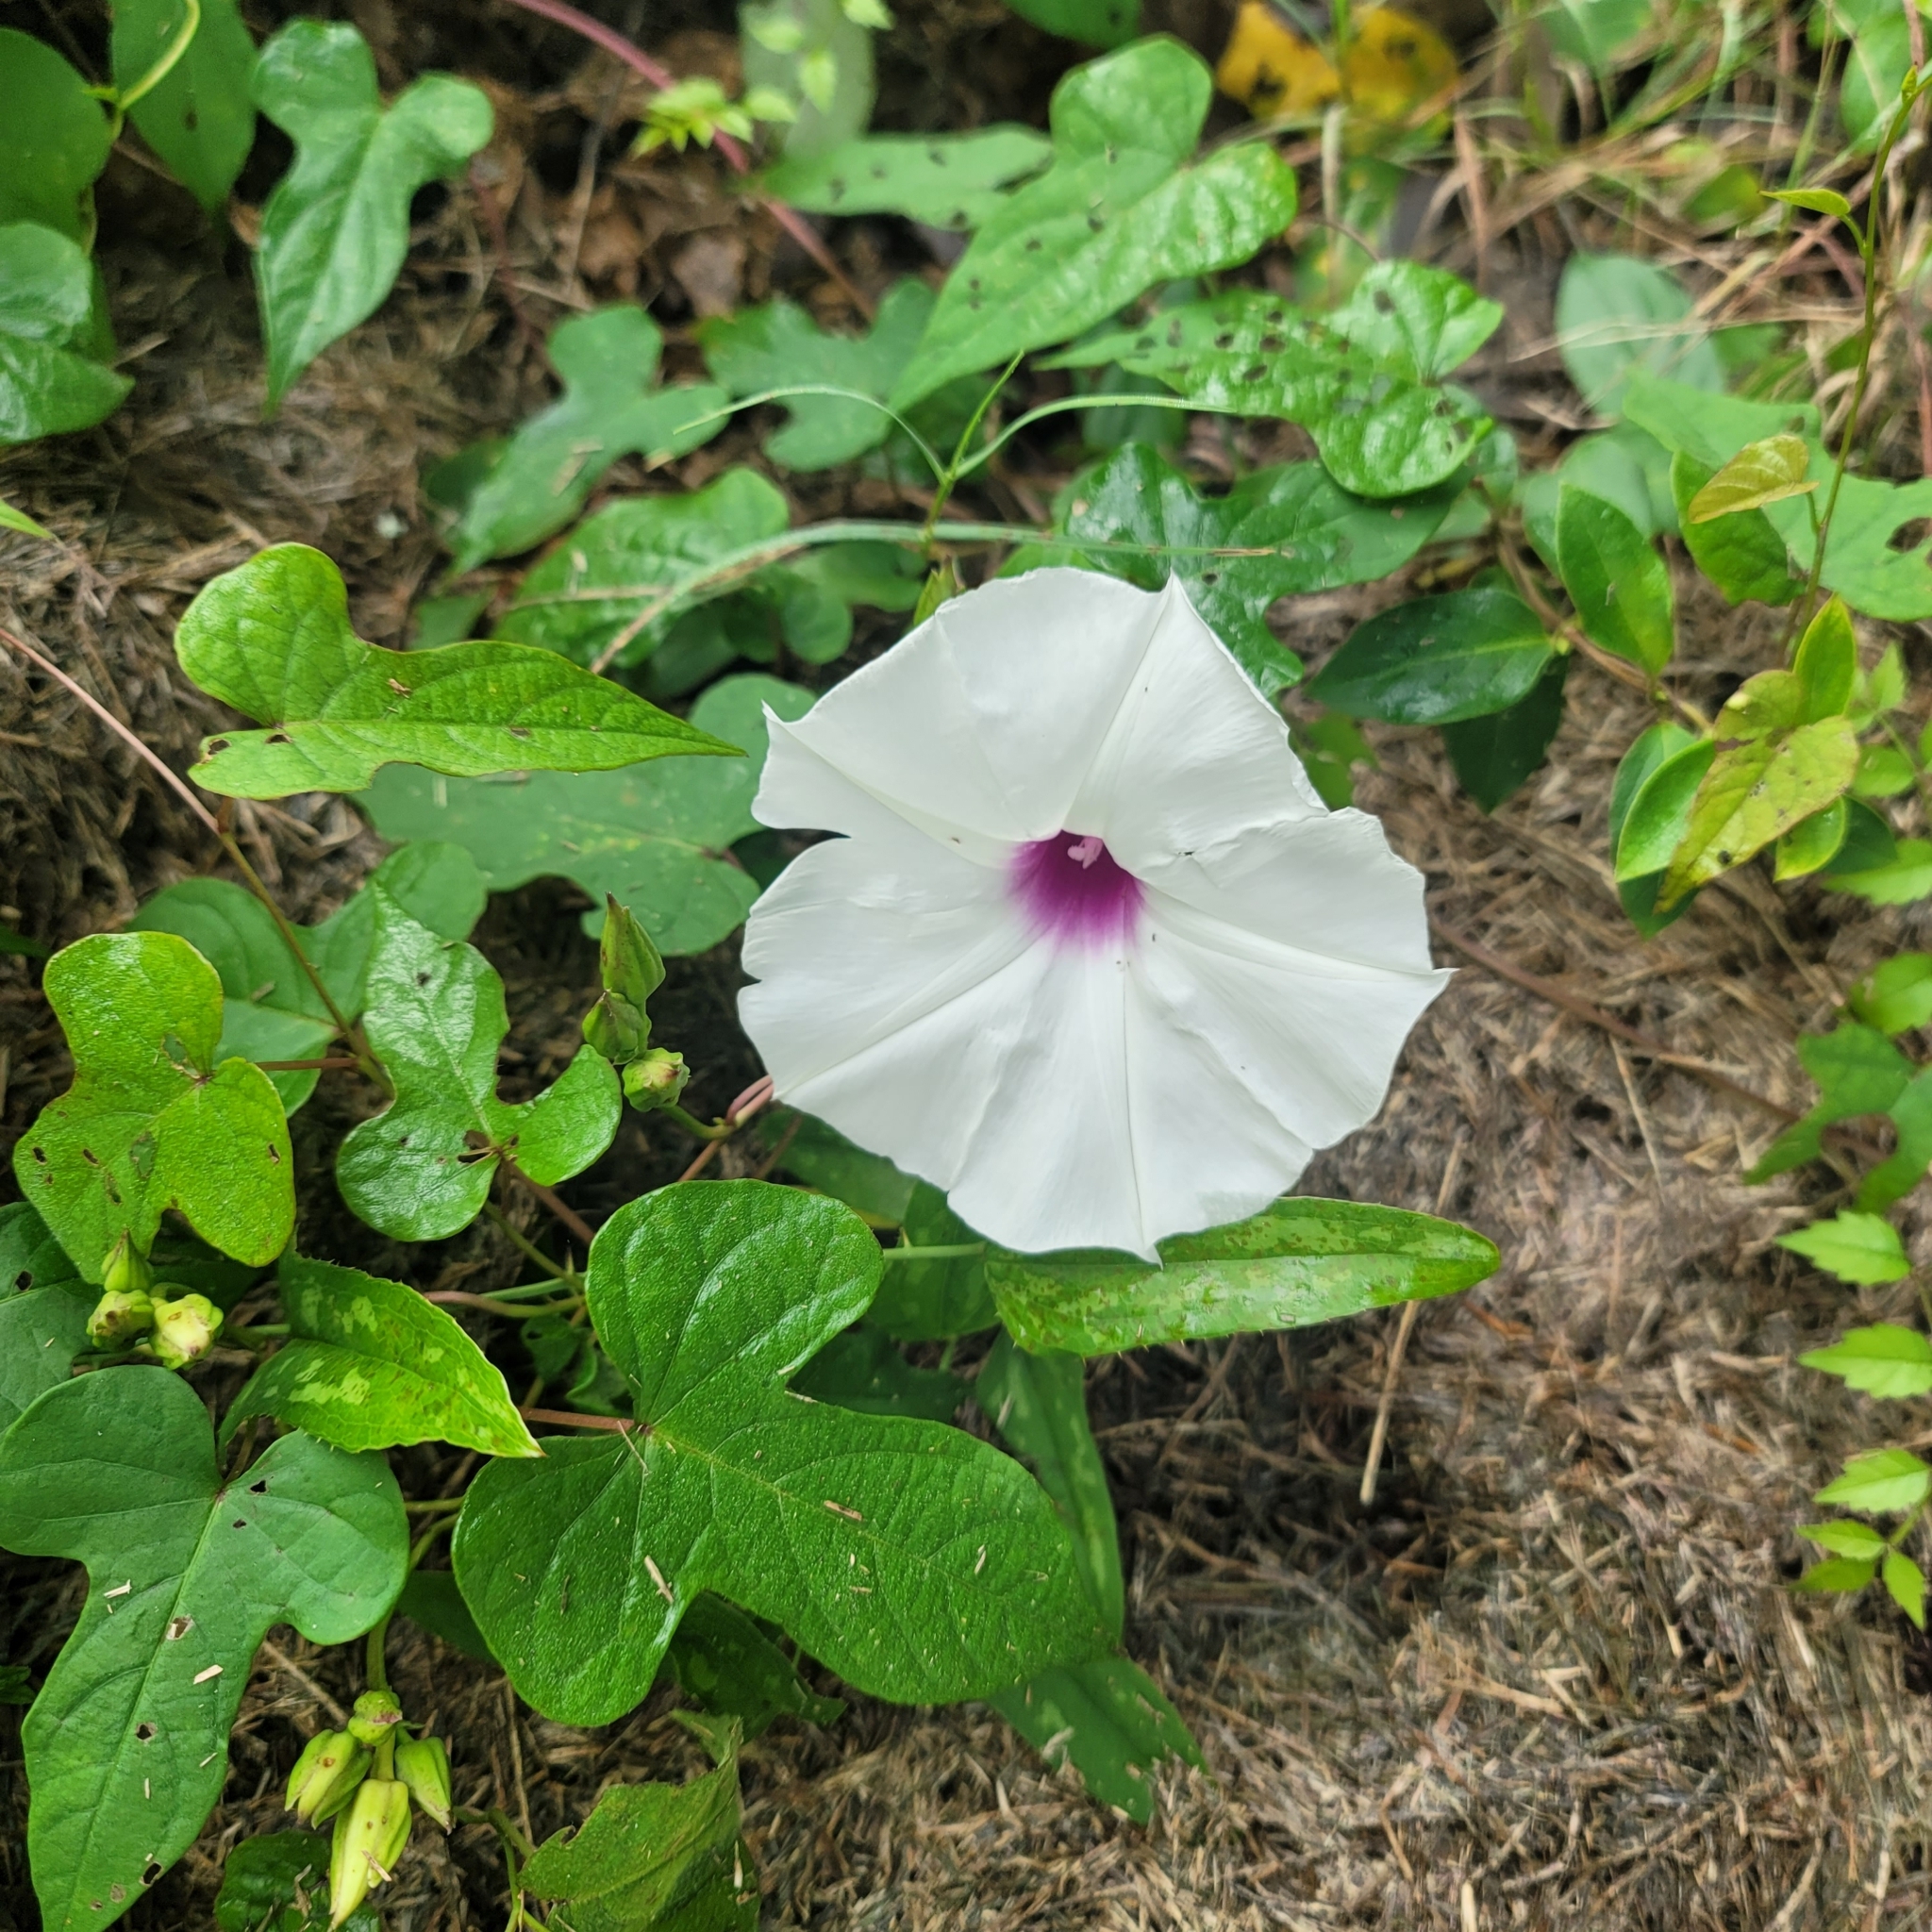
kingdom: Plantae
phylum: Tracheophyta
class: Magnoliopsida
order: Solanales
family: Convolvulaceae
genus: Ipomoea
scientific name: Ipomoea pandurata
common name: Man-of-the-earth
